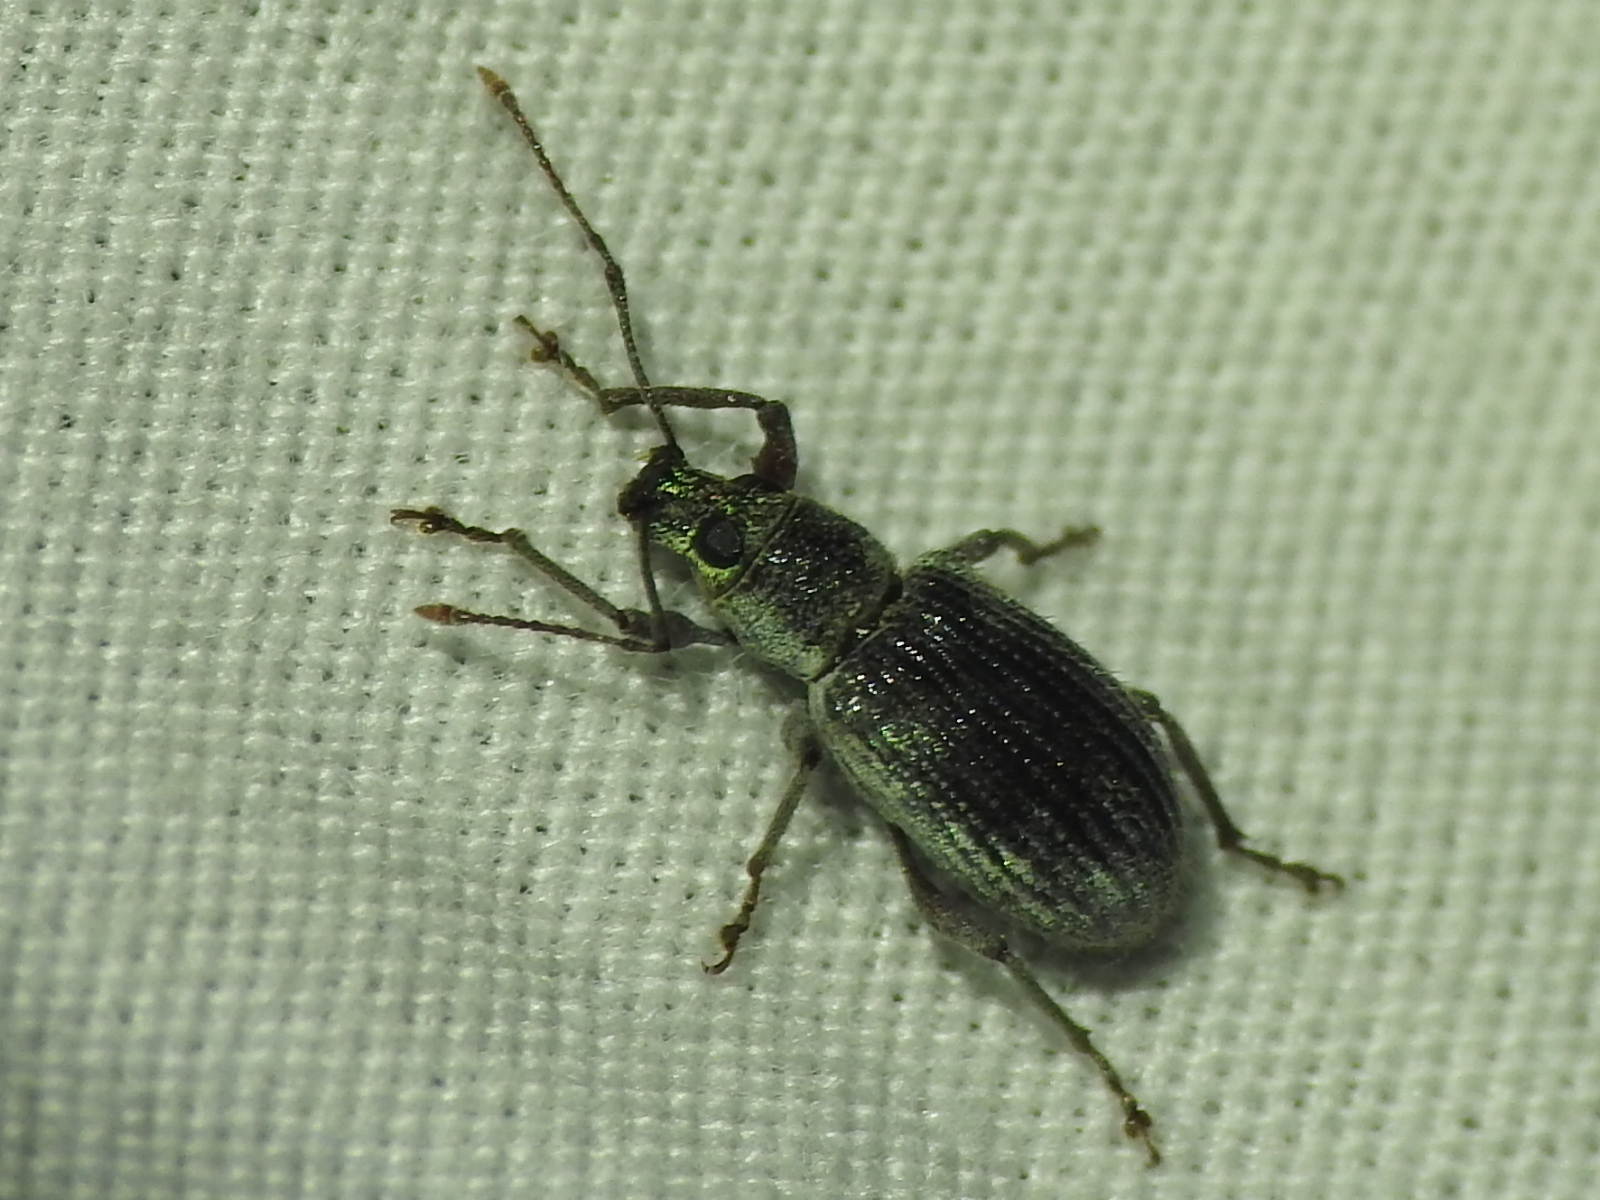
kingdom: Animalia
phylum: Arthropoda
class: Insecta
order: Coleoptera
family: Curculionidae
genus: Cyrtepistomus
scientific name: Cyrtepistomus castaneus
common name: Weevil
